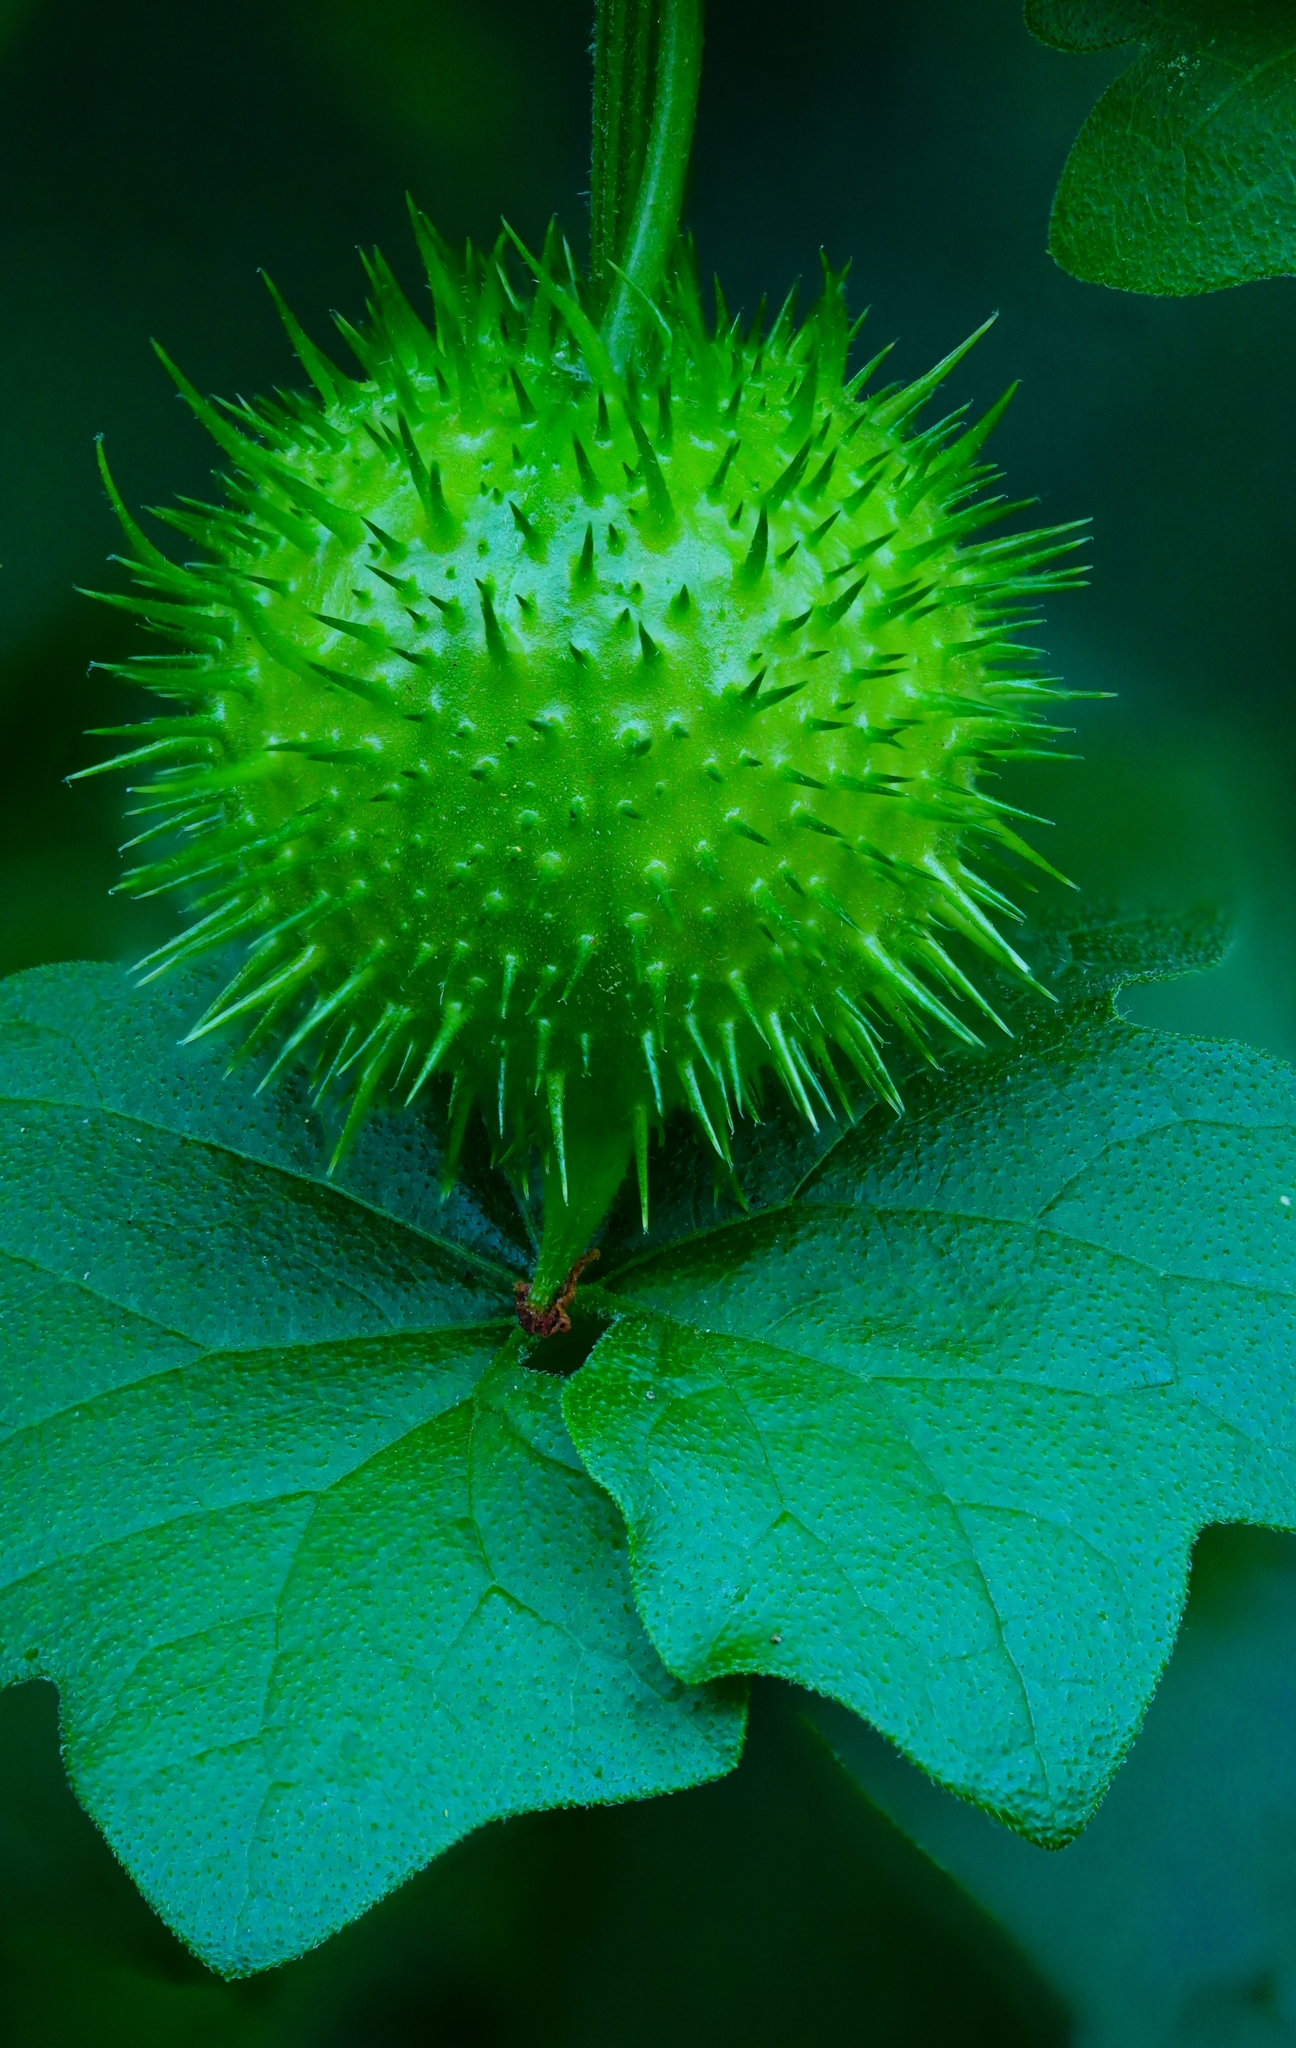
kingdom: Plantae
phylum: Tracheophyta
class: Magnoliopsida
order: Cucurbitales
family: Cucurbitaceae
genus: Marah
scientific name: Marah fabacea
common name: California manroot
